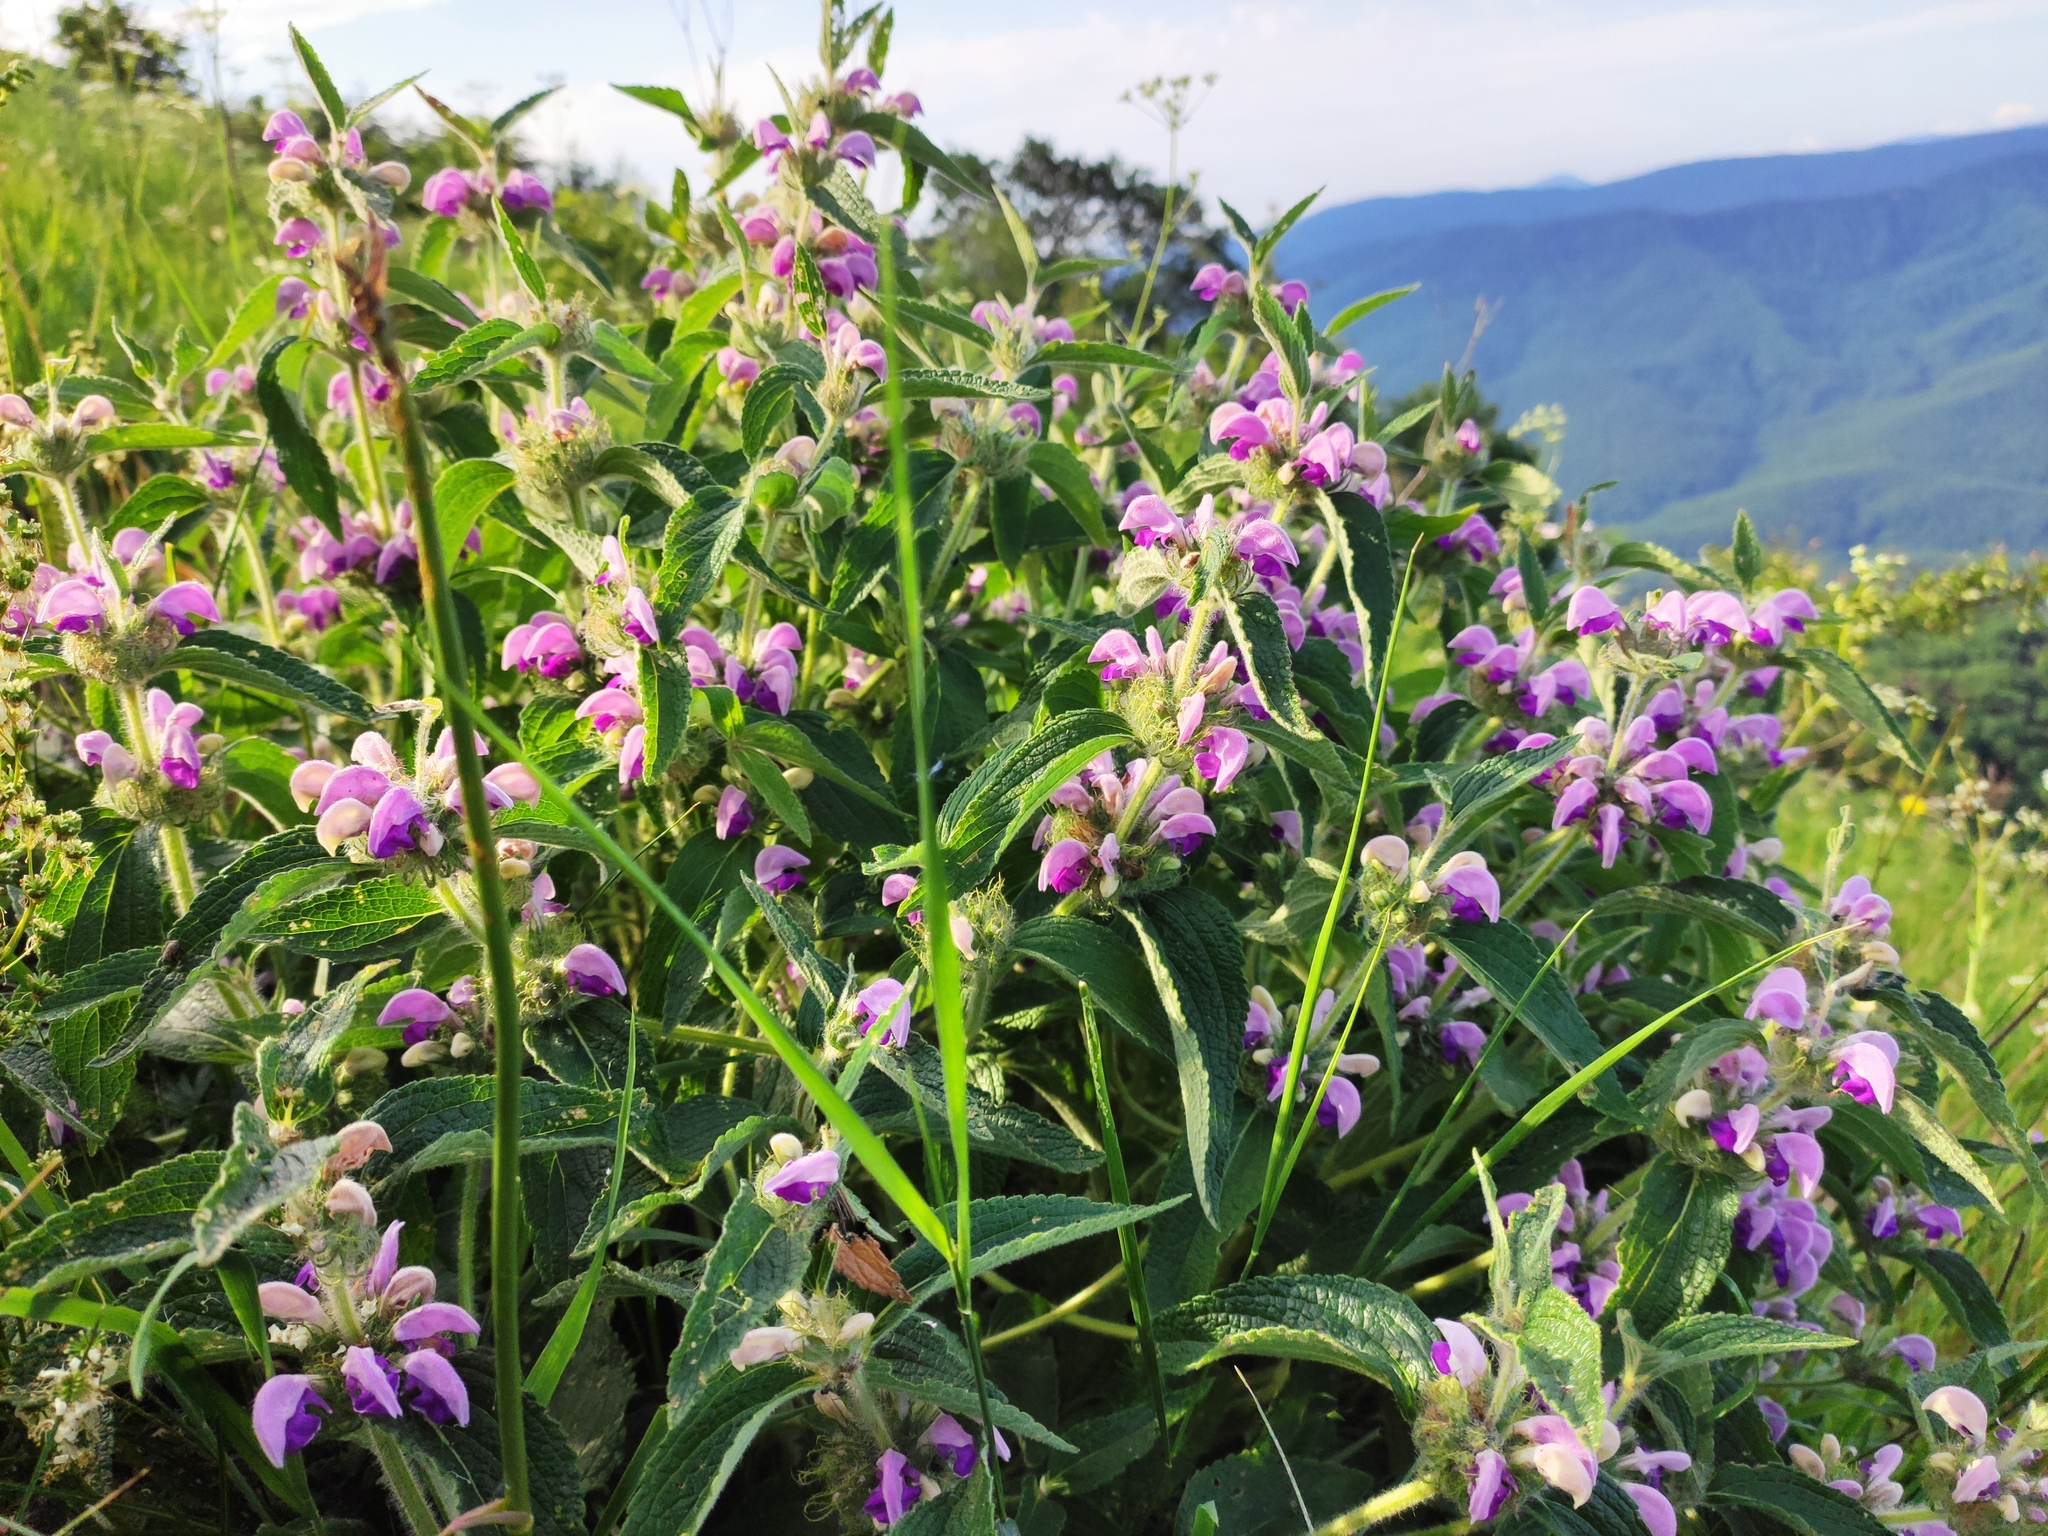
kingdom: Plantae
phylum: Tracheophyta
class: Magnoliopsida
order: Lamiales
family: Lamiaceae
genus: Phlomis
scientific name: Phlomis herba-venti
